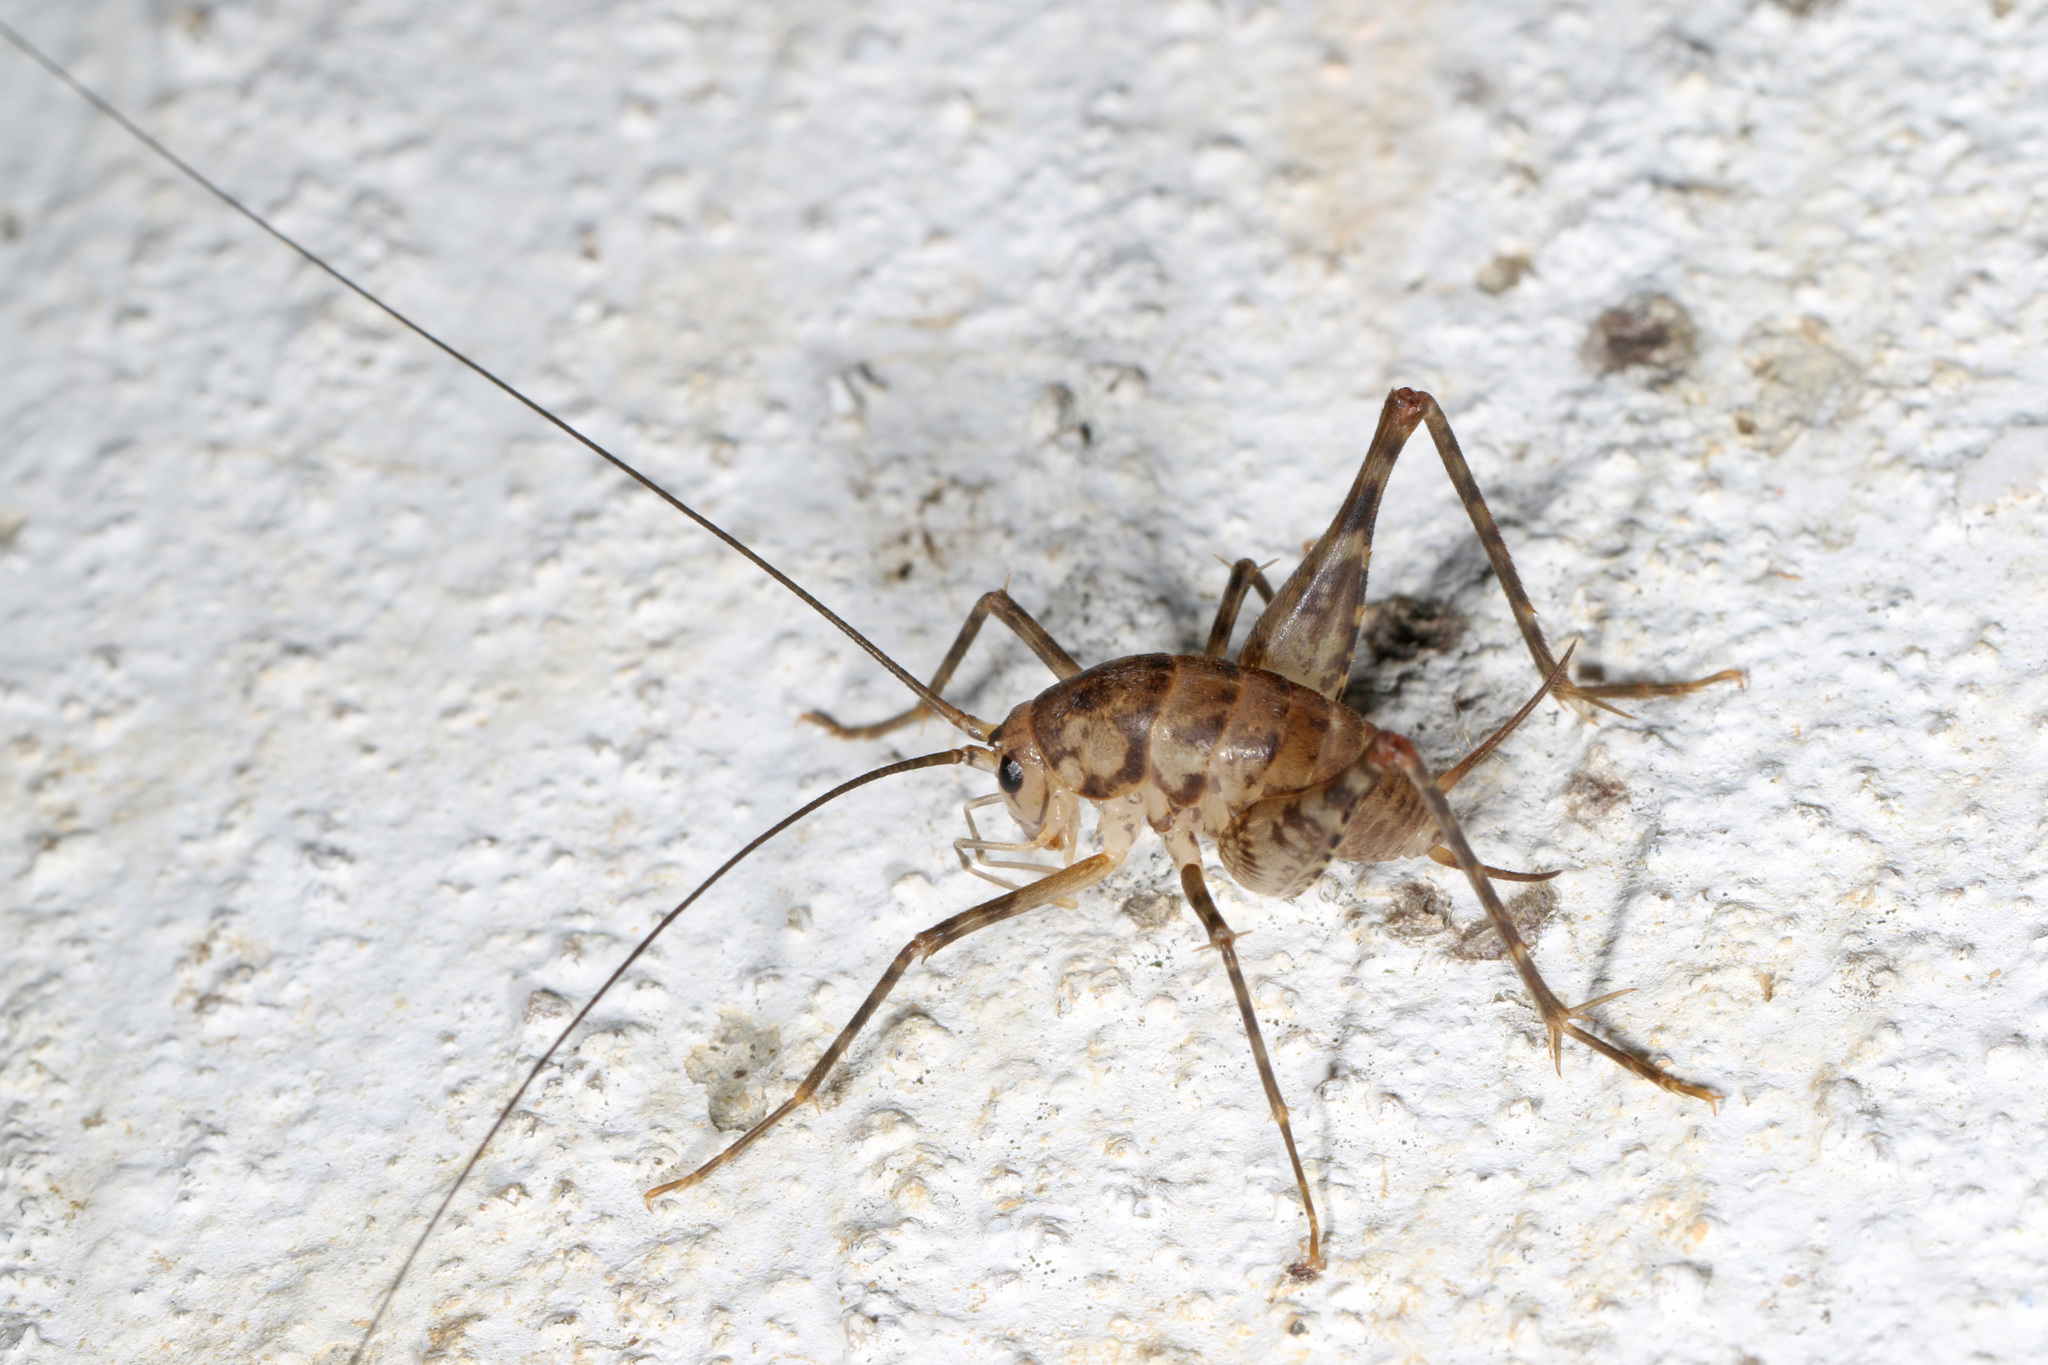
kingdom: Animalia
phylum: Arthropoda
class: Insecta
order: Orthoptera
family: Rhaphidophoridae
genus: Tachycines
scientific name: Tachycines asynamorus
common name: Greenhouse camel cricket
